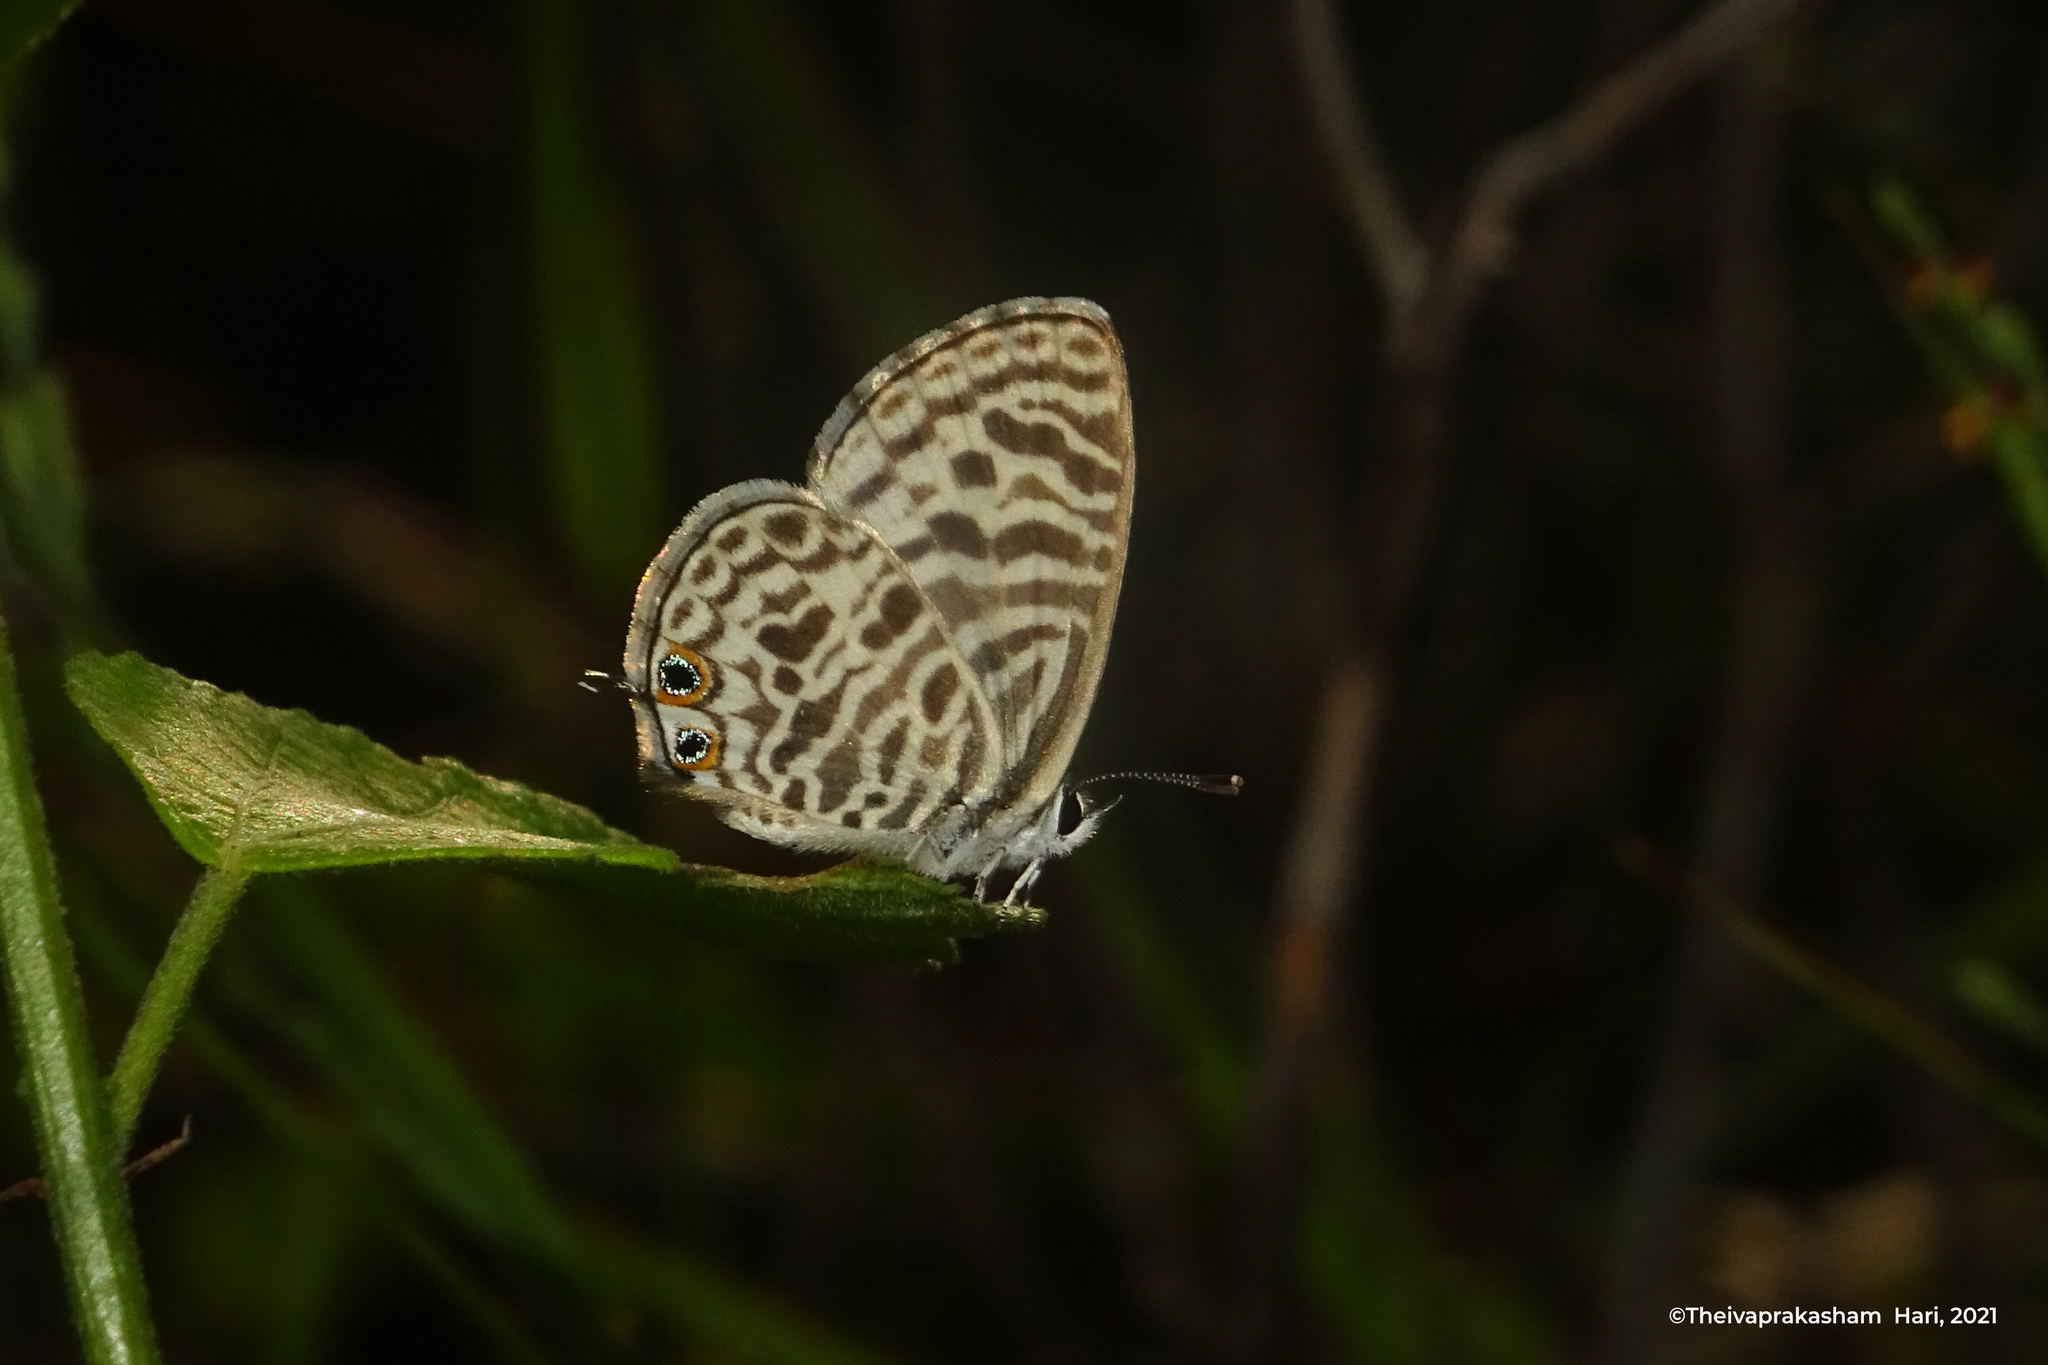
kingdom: Animalia
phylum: Arthropoda
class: Insecta
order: Lepidoptera
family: Lycaenidae
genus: Leptotes
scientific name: Leptotes plinius
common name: Zebra blue
